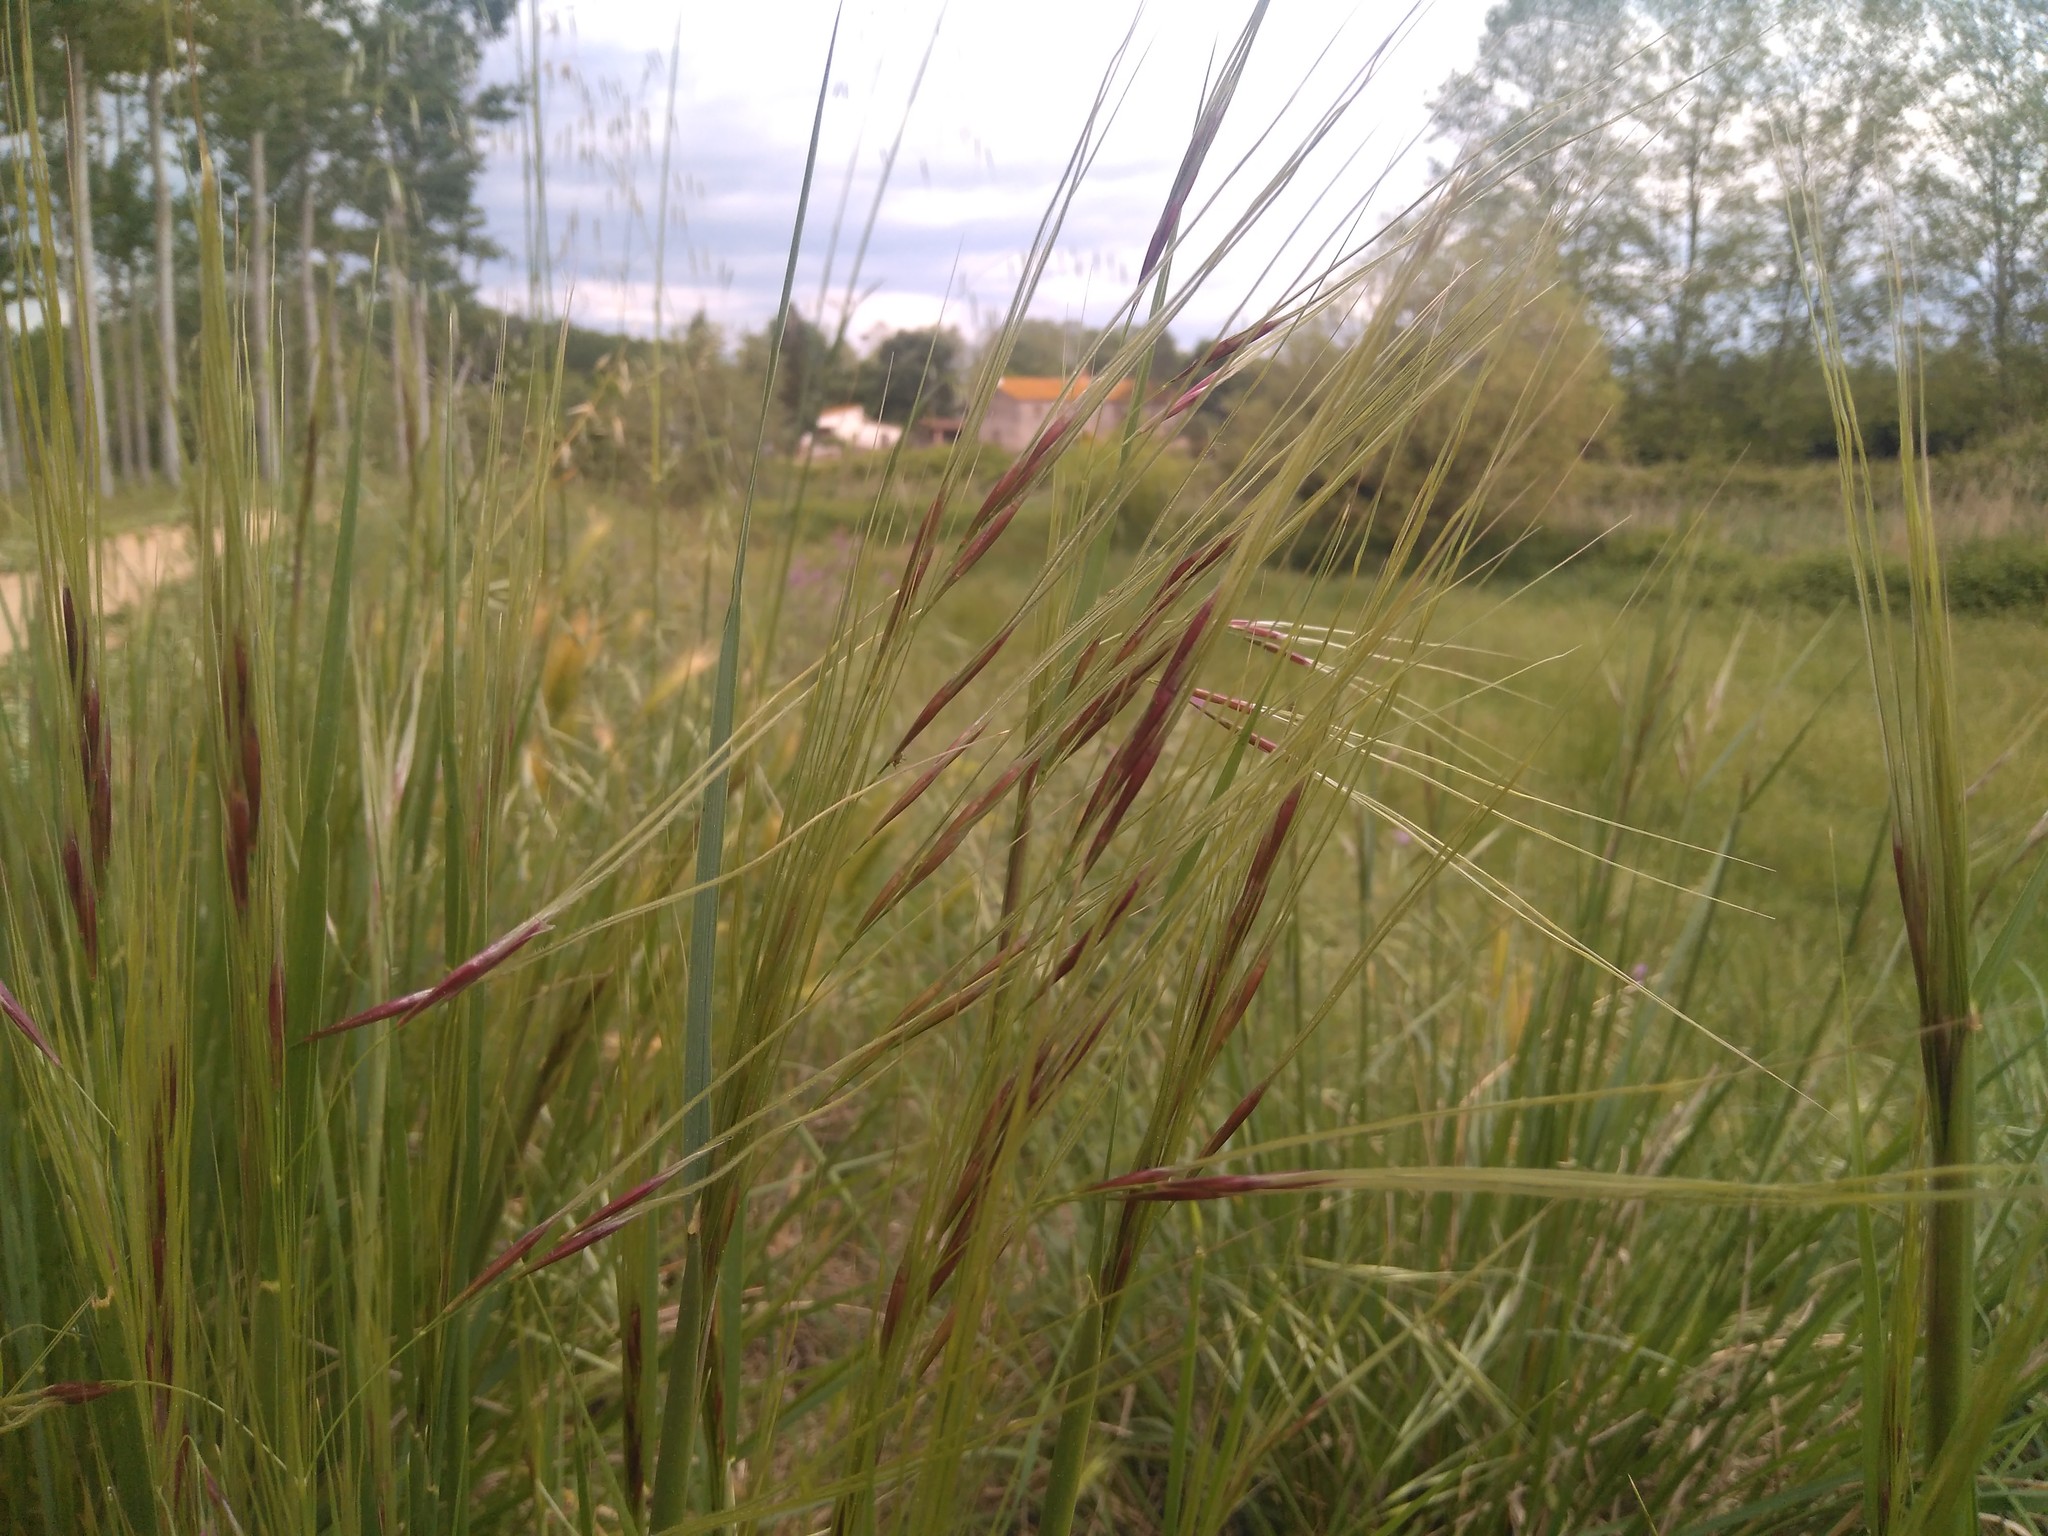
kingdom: Plantae
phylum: Tracheophyta
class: Liliopsida
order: Poales
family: Poaceae
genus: Nassella
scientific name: Nassella neesiana
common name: American needle-grass
